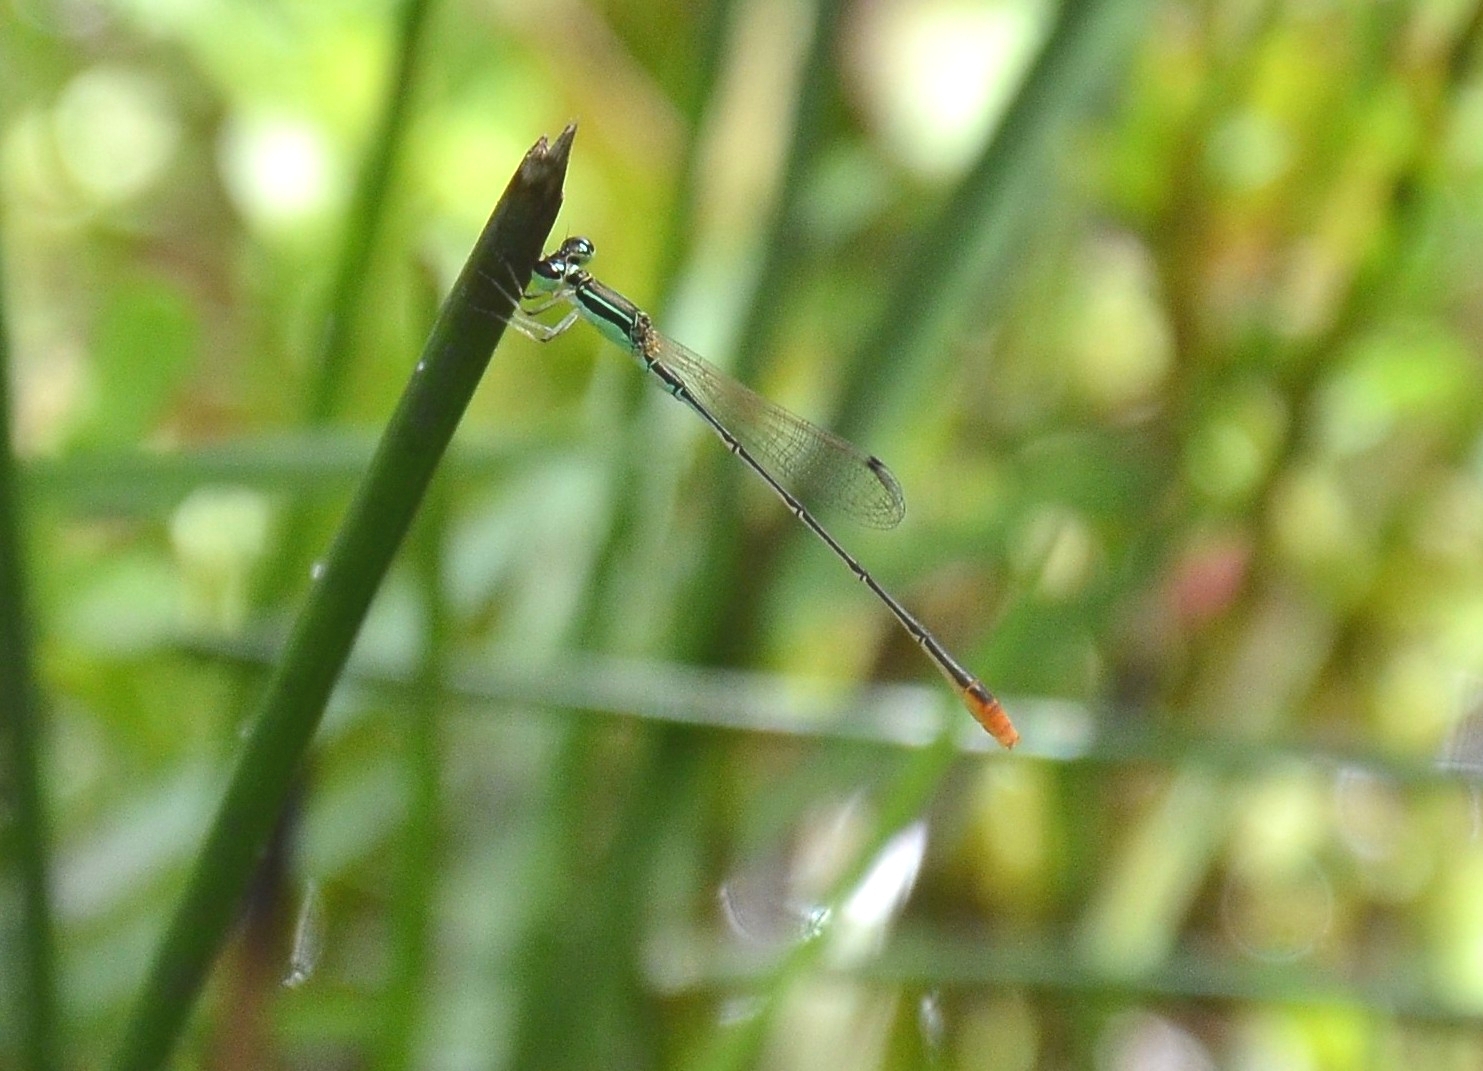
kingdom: Animalia
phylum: Arthropoda
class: Insecta
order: Odonata
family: Coenagrionidae
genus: Agriocnemis
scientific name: Agriocnemis pygmaea
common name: Pygmy wisp
